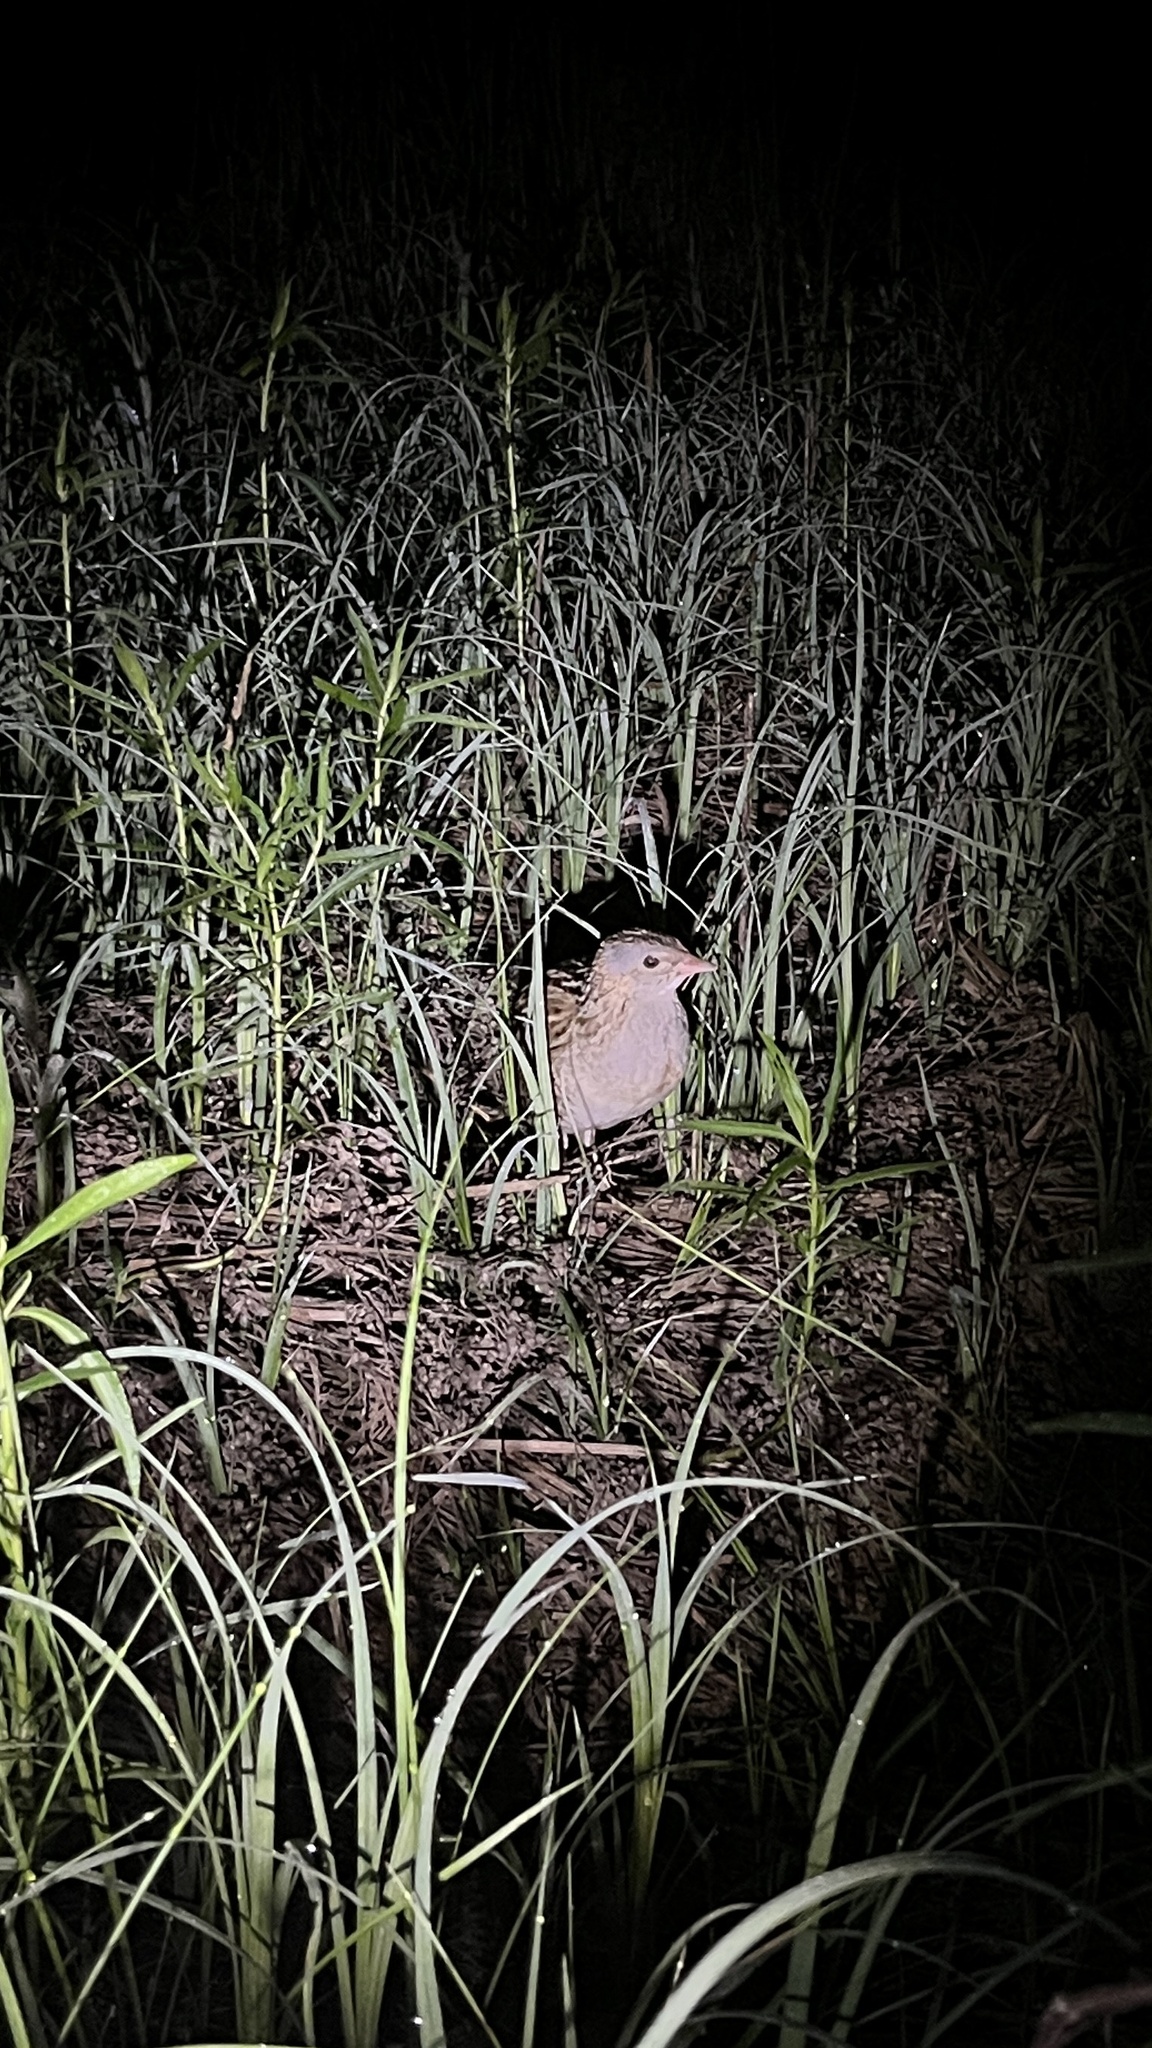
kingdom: Animalia
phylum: Chordata
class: Aves
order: Gruiformes
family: Rallidae
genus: Crex
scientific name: Crex crex
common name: Corn crake
